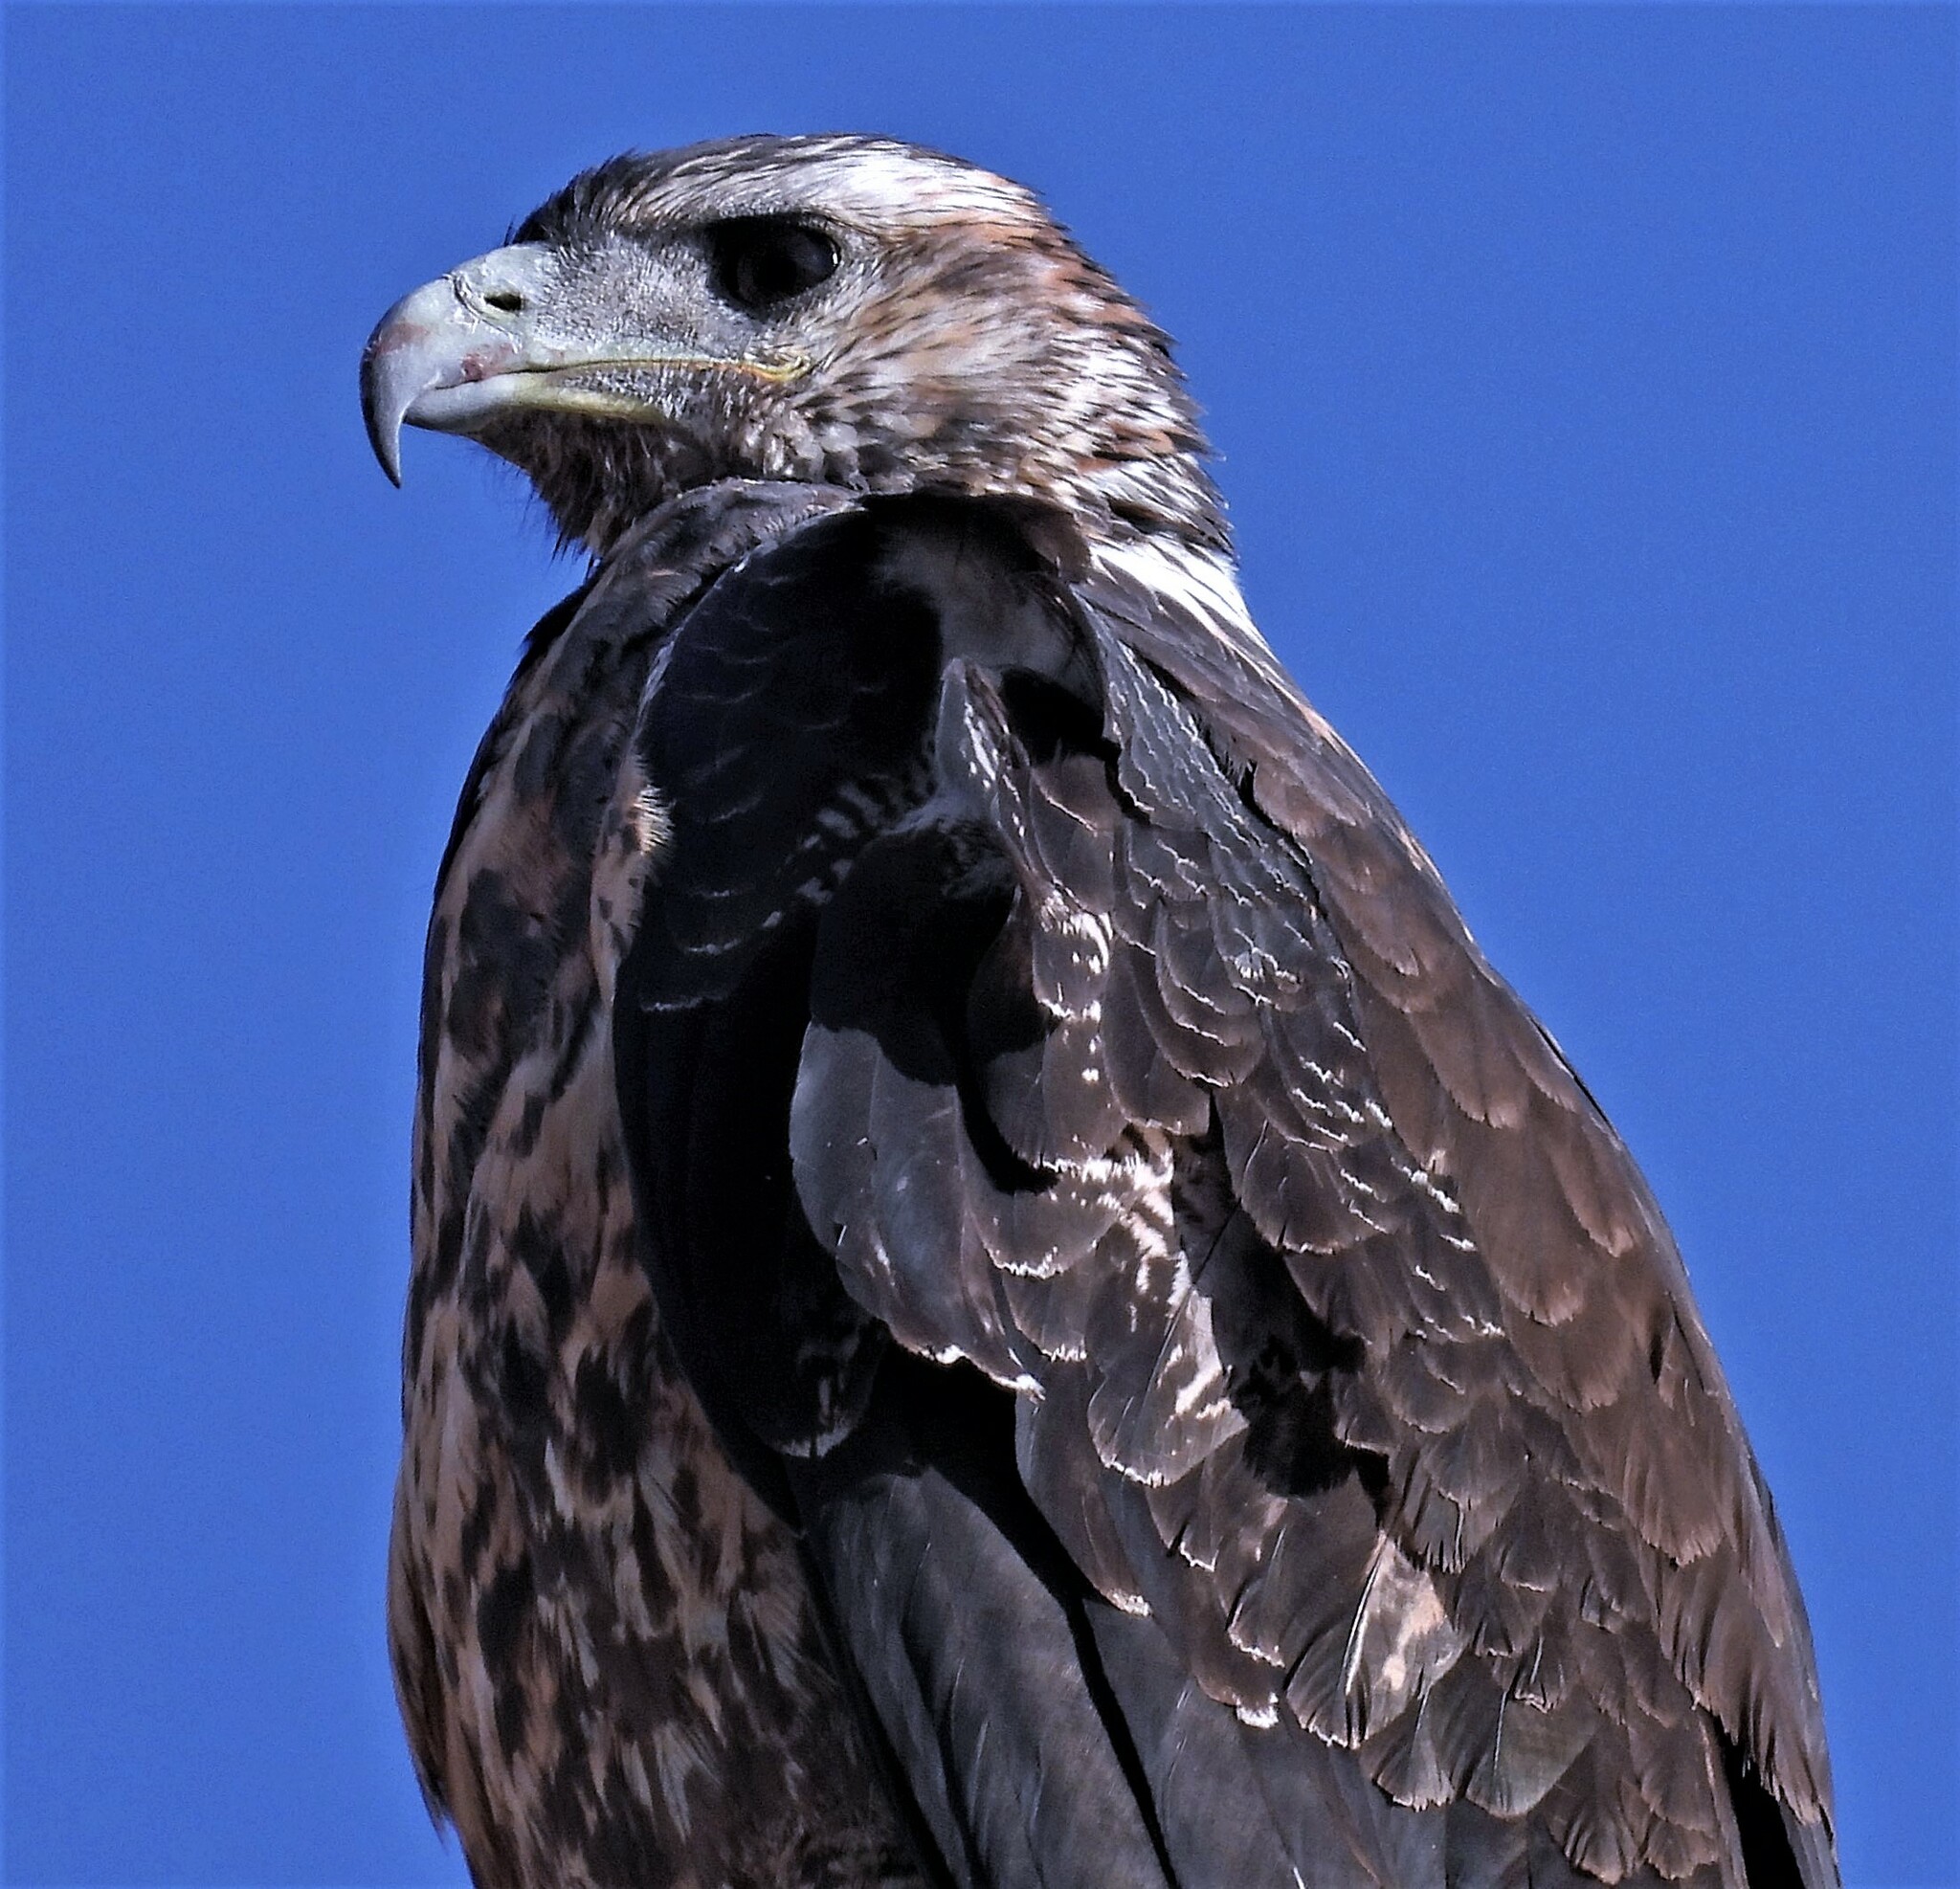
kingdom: Animalia
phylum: Chordata
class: Aves
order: Accipitriformes
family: Accipitridae
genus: Geranoaetus
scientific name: Geranoaetus melanoleucus
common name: Black-chested buzzard-eagle
